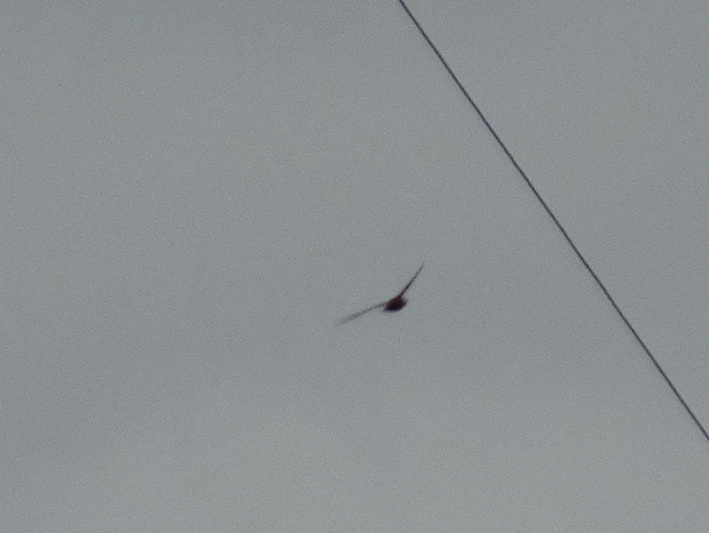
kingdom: Animalia
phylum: Chordata
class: Aves
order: Apodiformes
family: Apodidae
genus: Chaetura
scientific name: Chaetura pelagica
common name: Chimney swift
